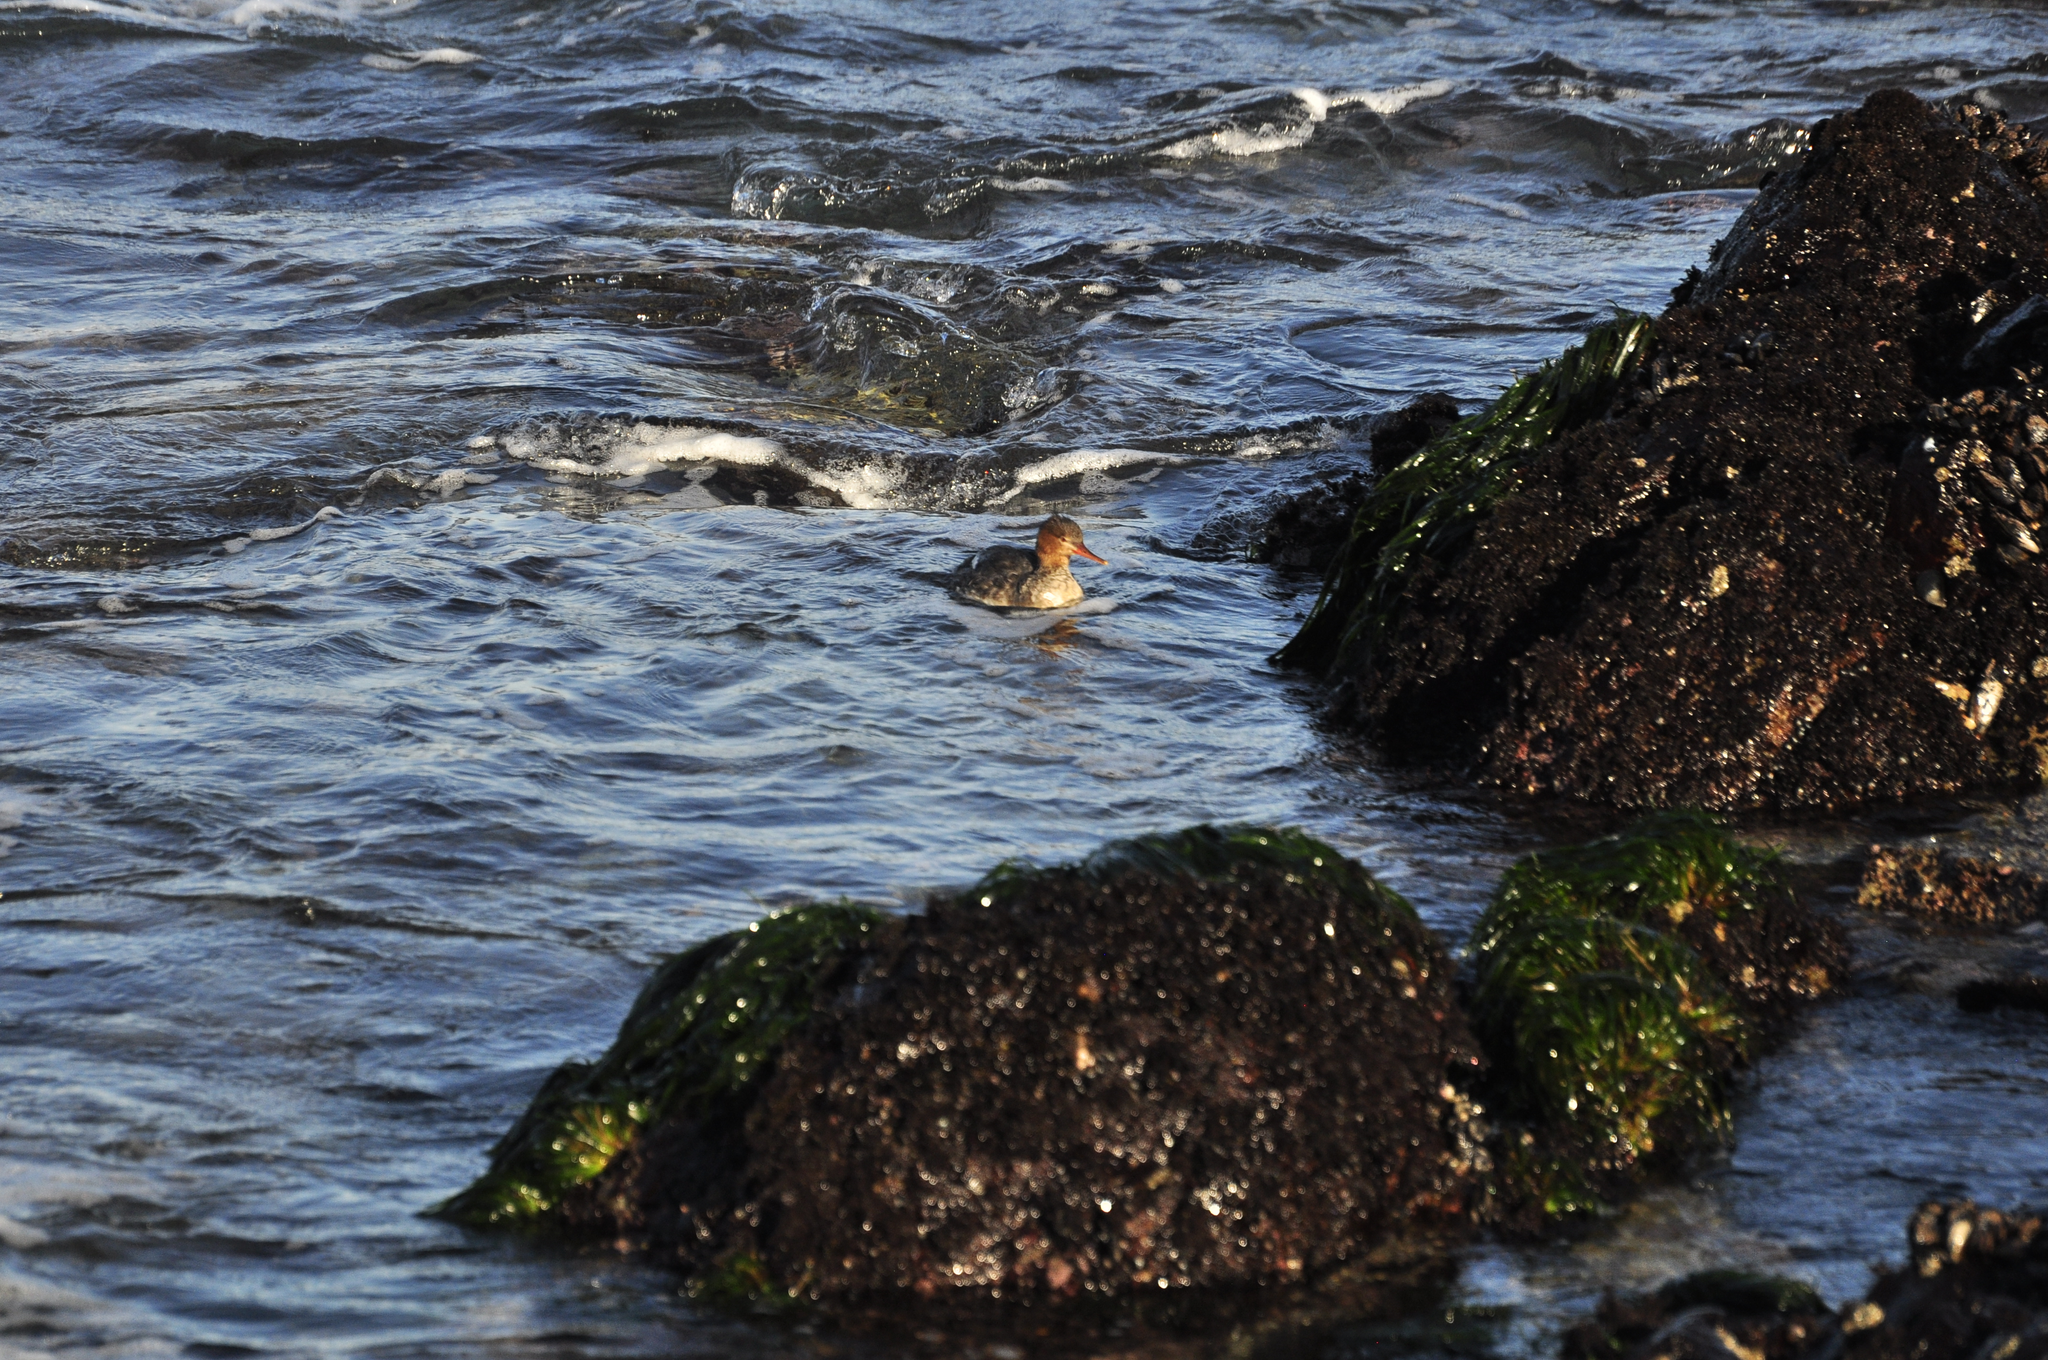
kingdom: Animalia
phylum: Chordata
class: Aves
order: Anseriformes
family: Anatidae
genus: Mergus
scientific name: Mergus serrator
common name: Red-breasted merganser
